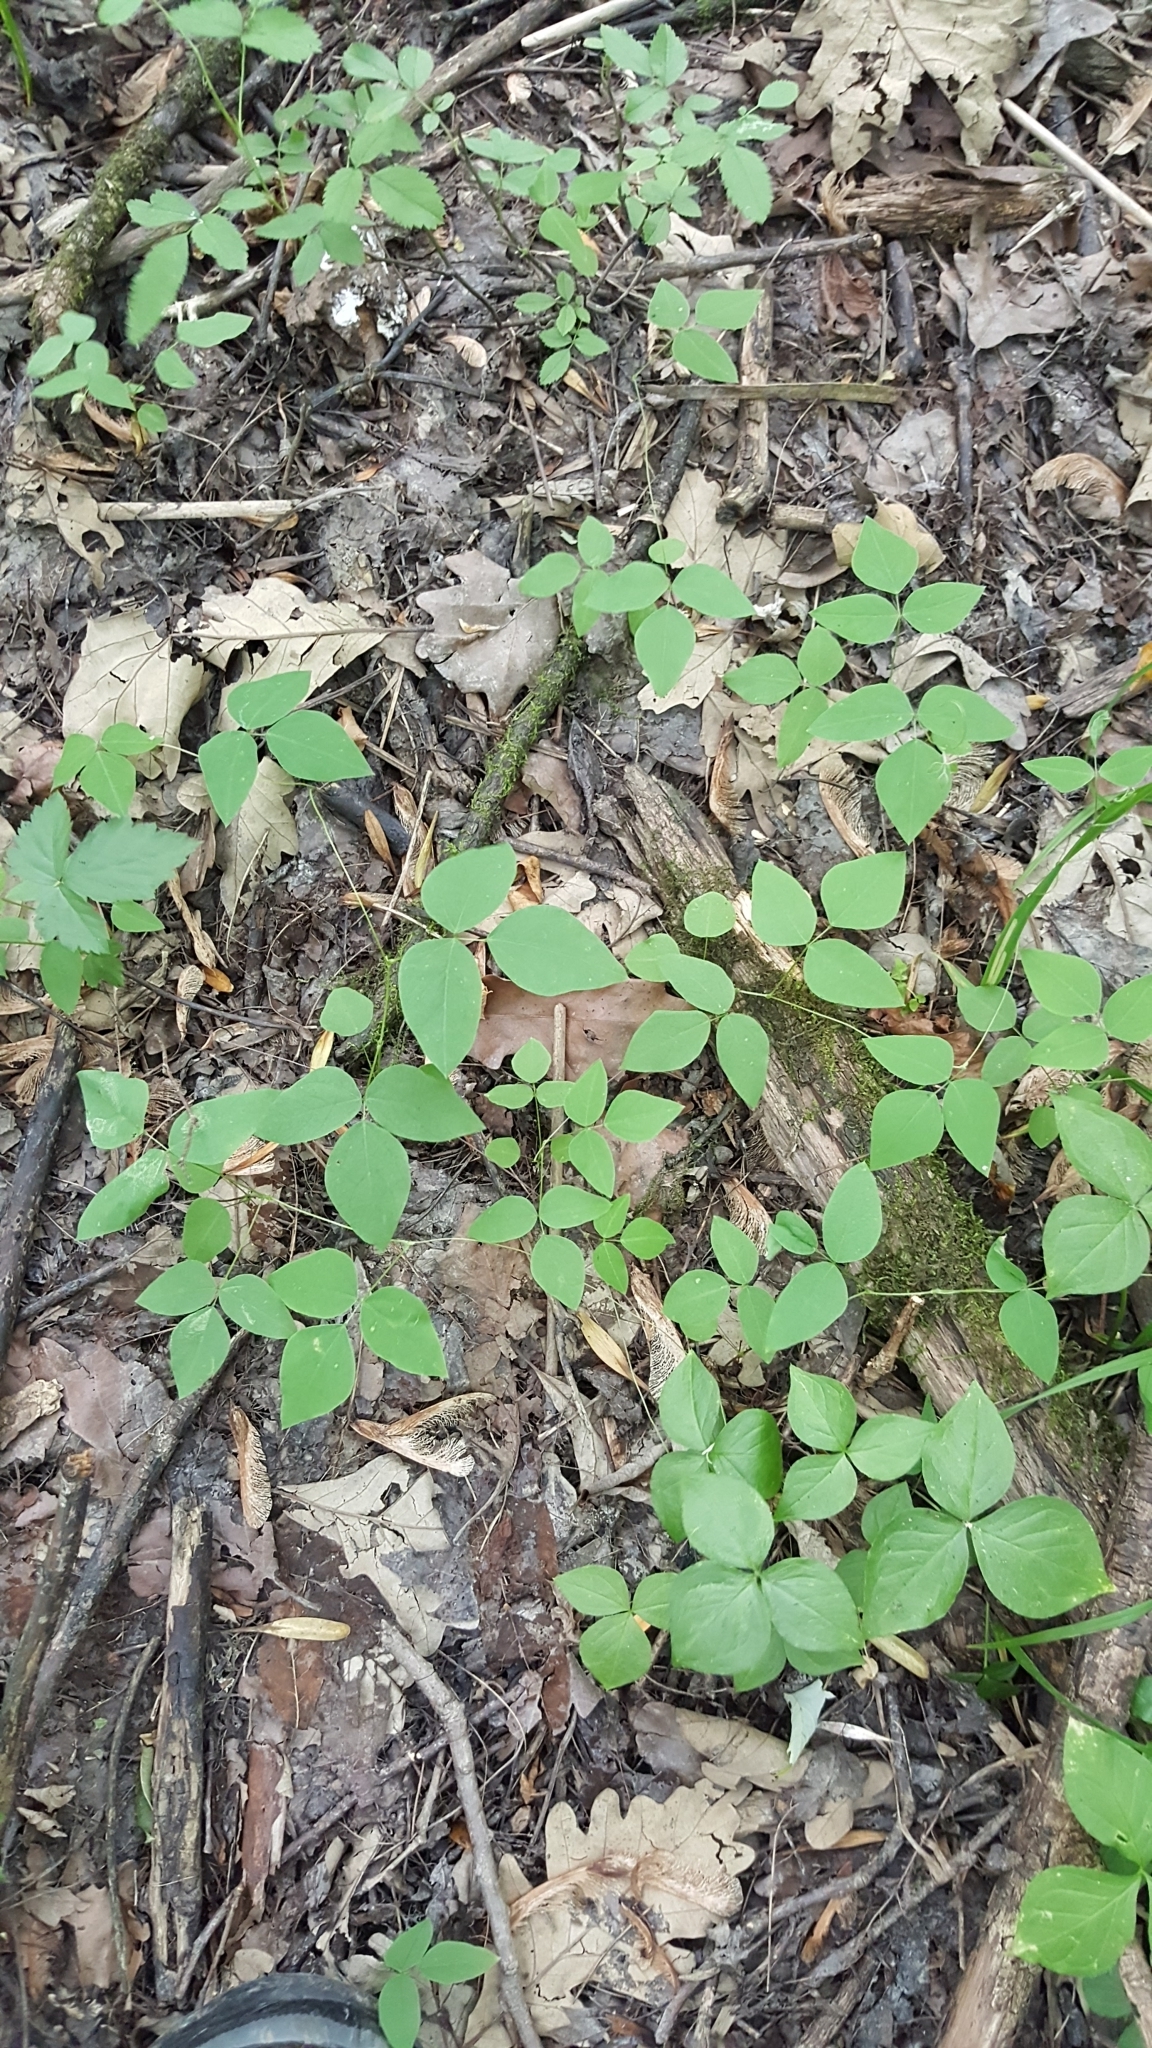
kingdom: Plantae
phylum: Tracheophyta
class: Magnoliopsida
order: Fabales
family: Fabaceae
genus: Amphicarpaea
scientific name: Amphicarpaea bracteata
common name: American hog peanut
